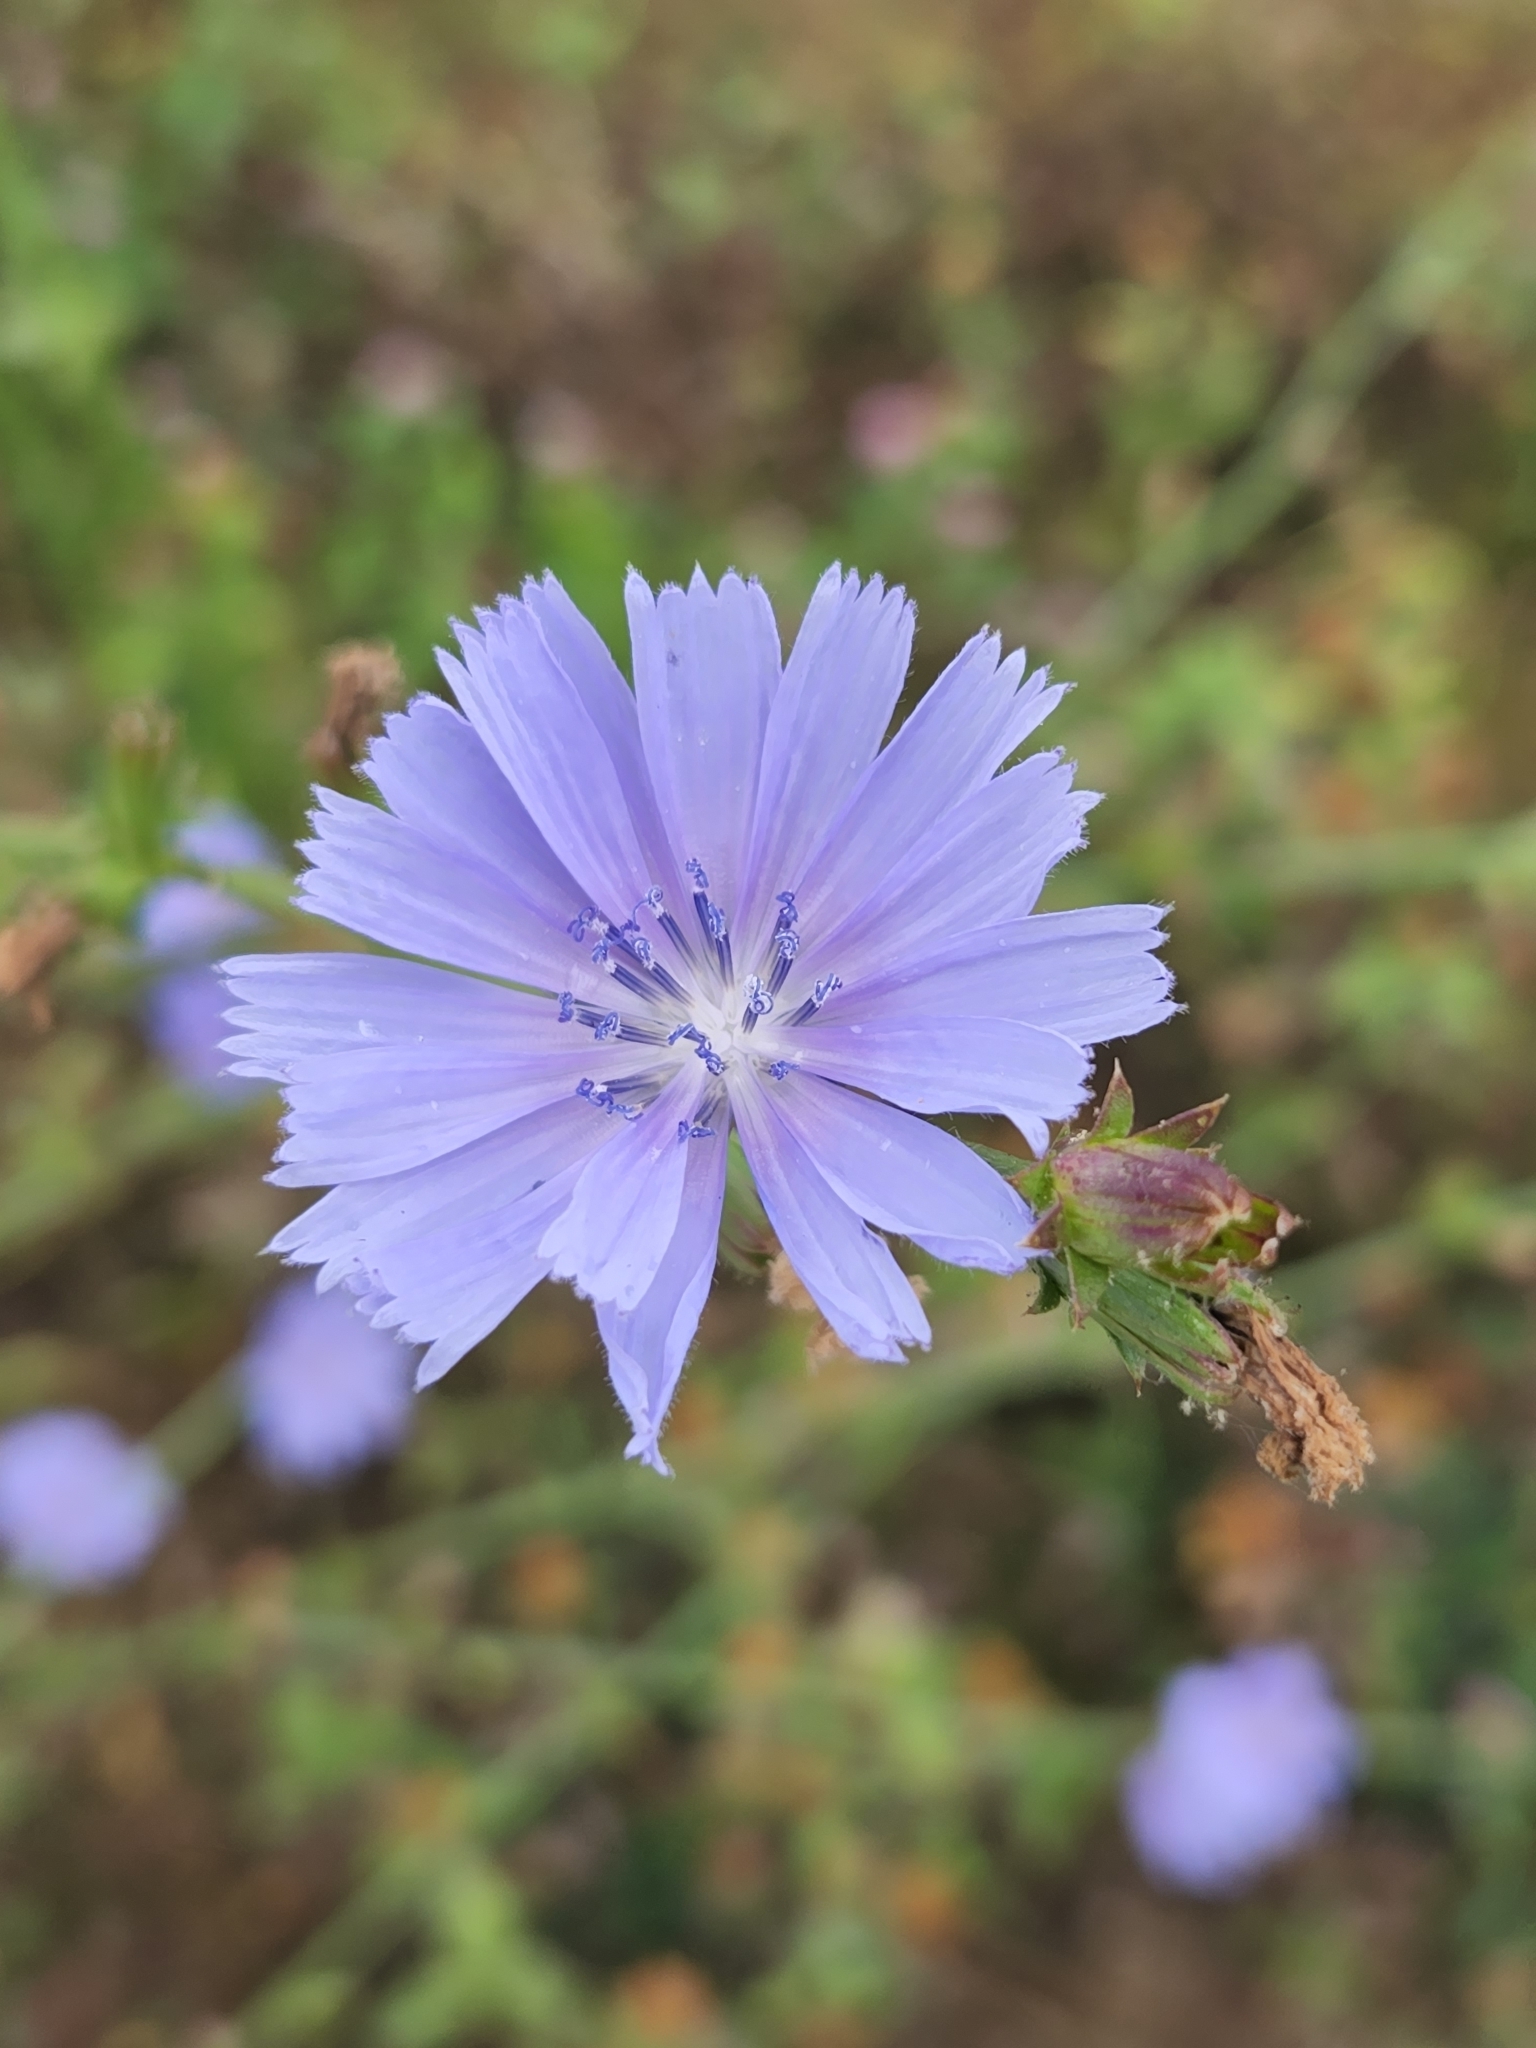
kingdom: Plantae
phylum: Tracheophyta
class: Magnoliopsida
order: Asterales
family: Asteraceae
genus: Cichorium
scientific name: Cichorium intybus
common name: Chicory
